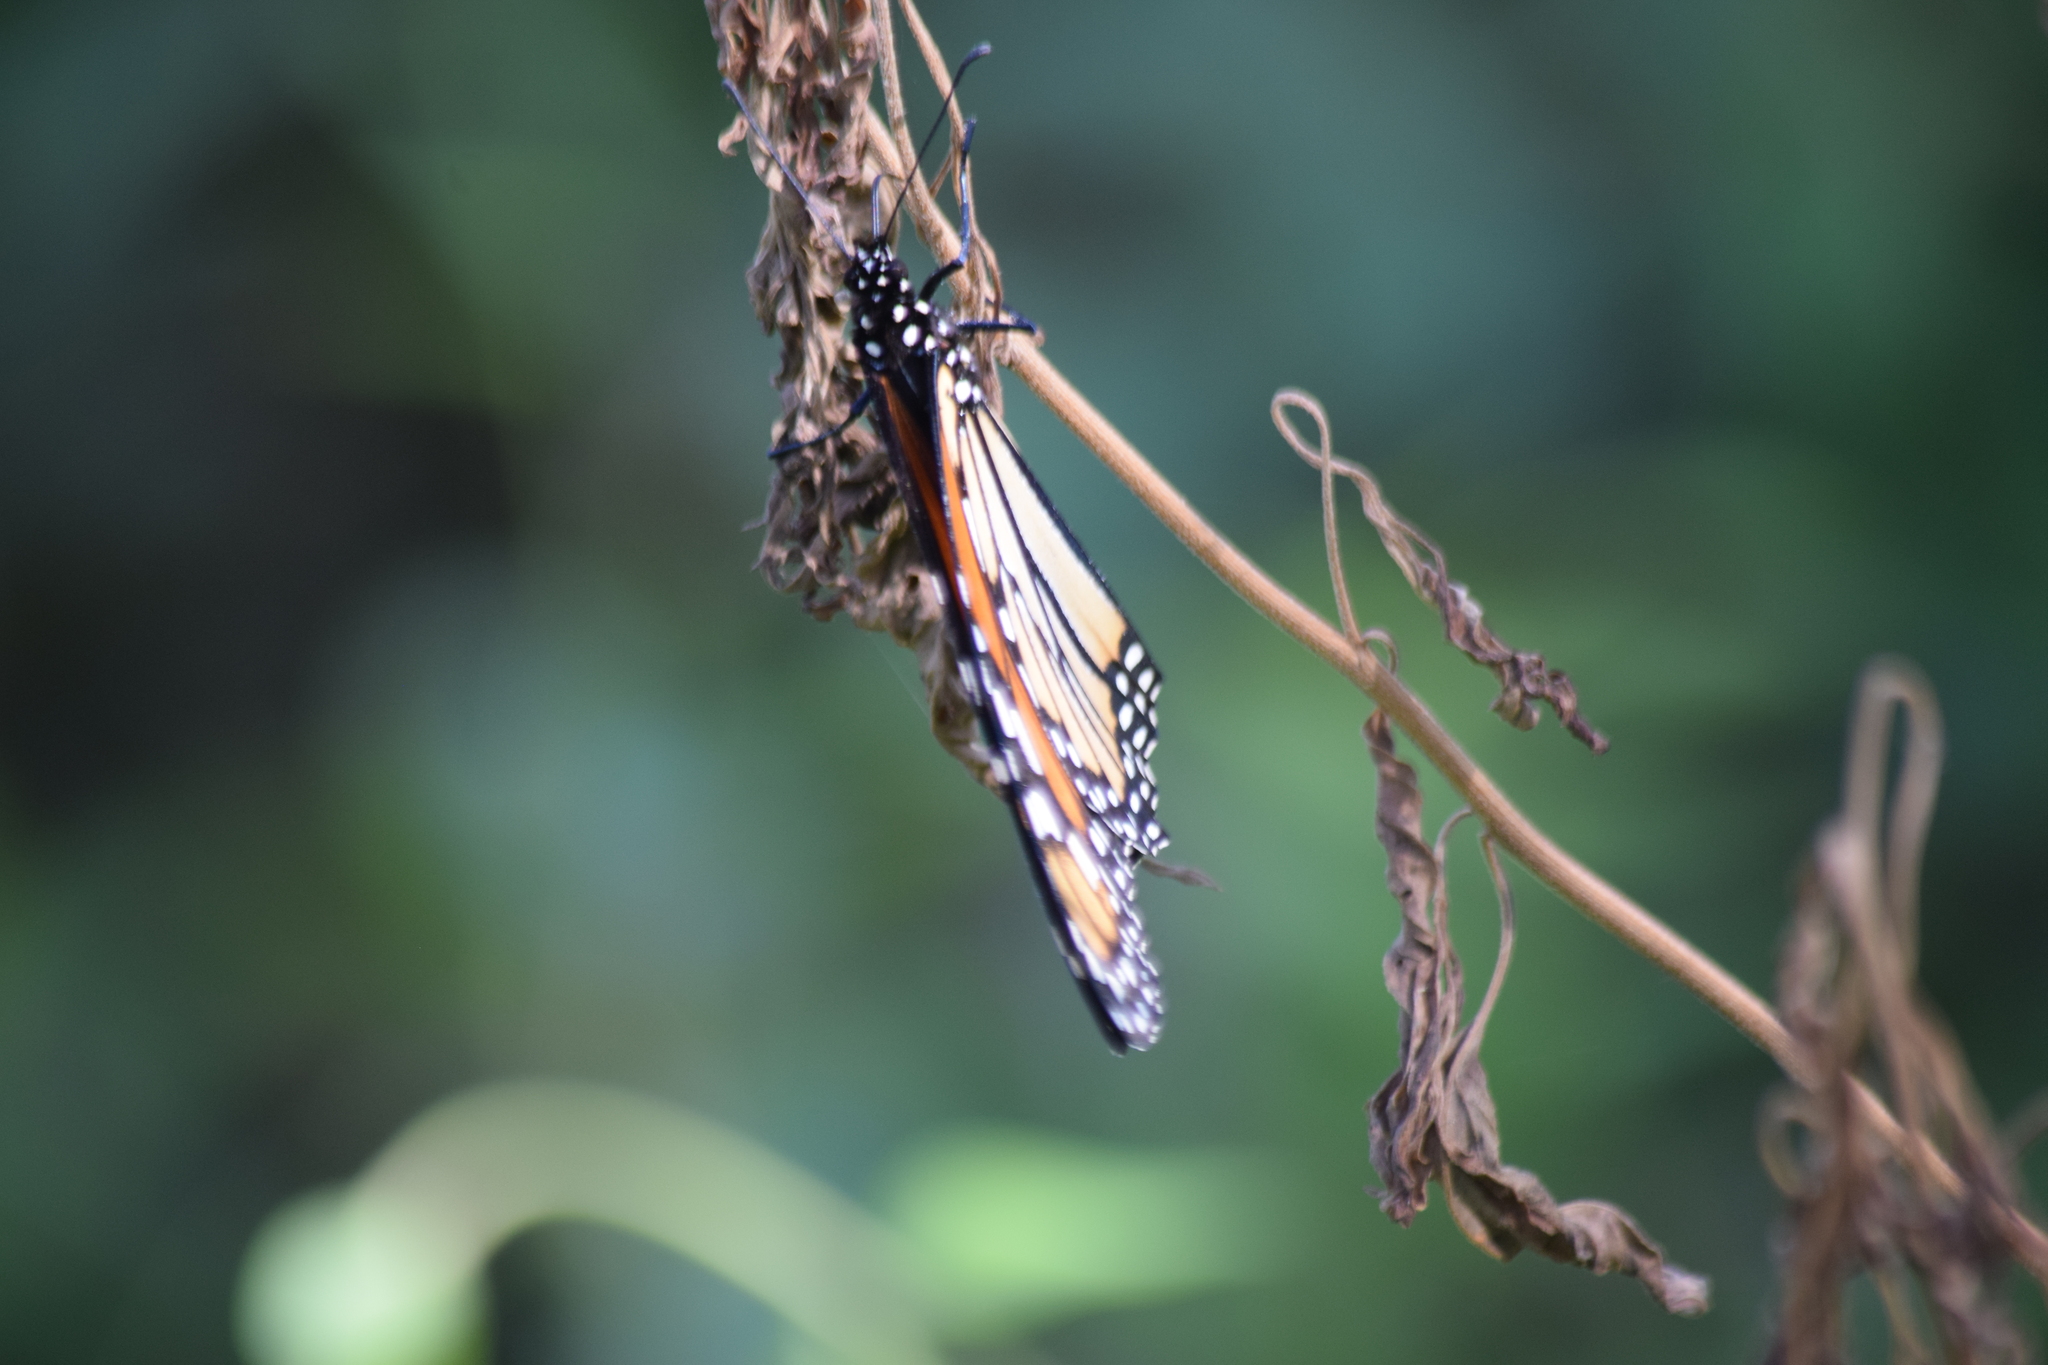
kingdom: Animalia
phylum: Arthropoda
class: Insecta
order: Lepidoptera
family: Nymphalidae
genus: Danaus
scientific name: Danaus plexippus
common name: Monarch
